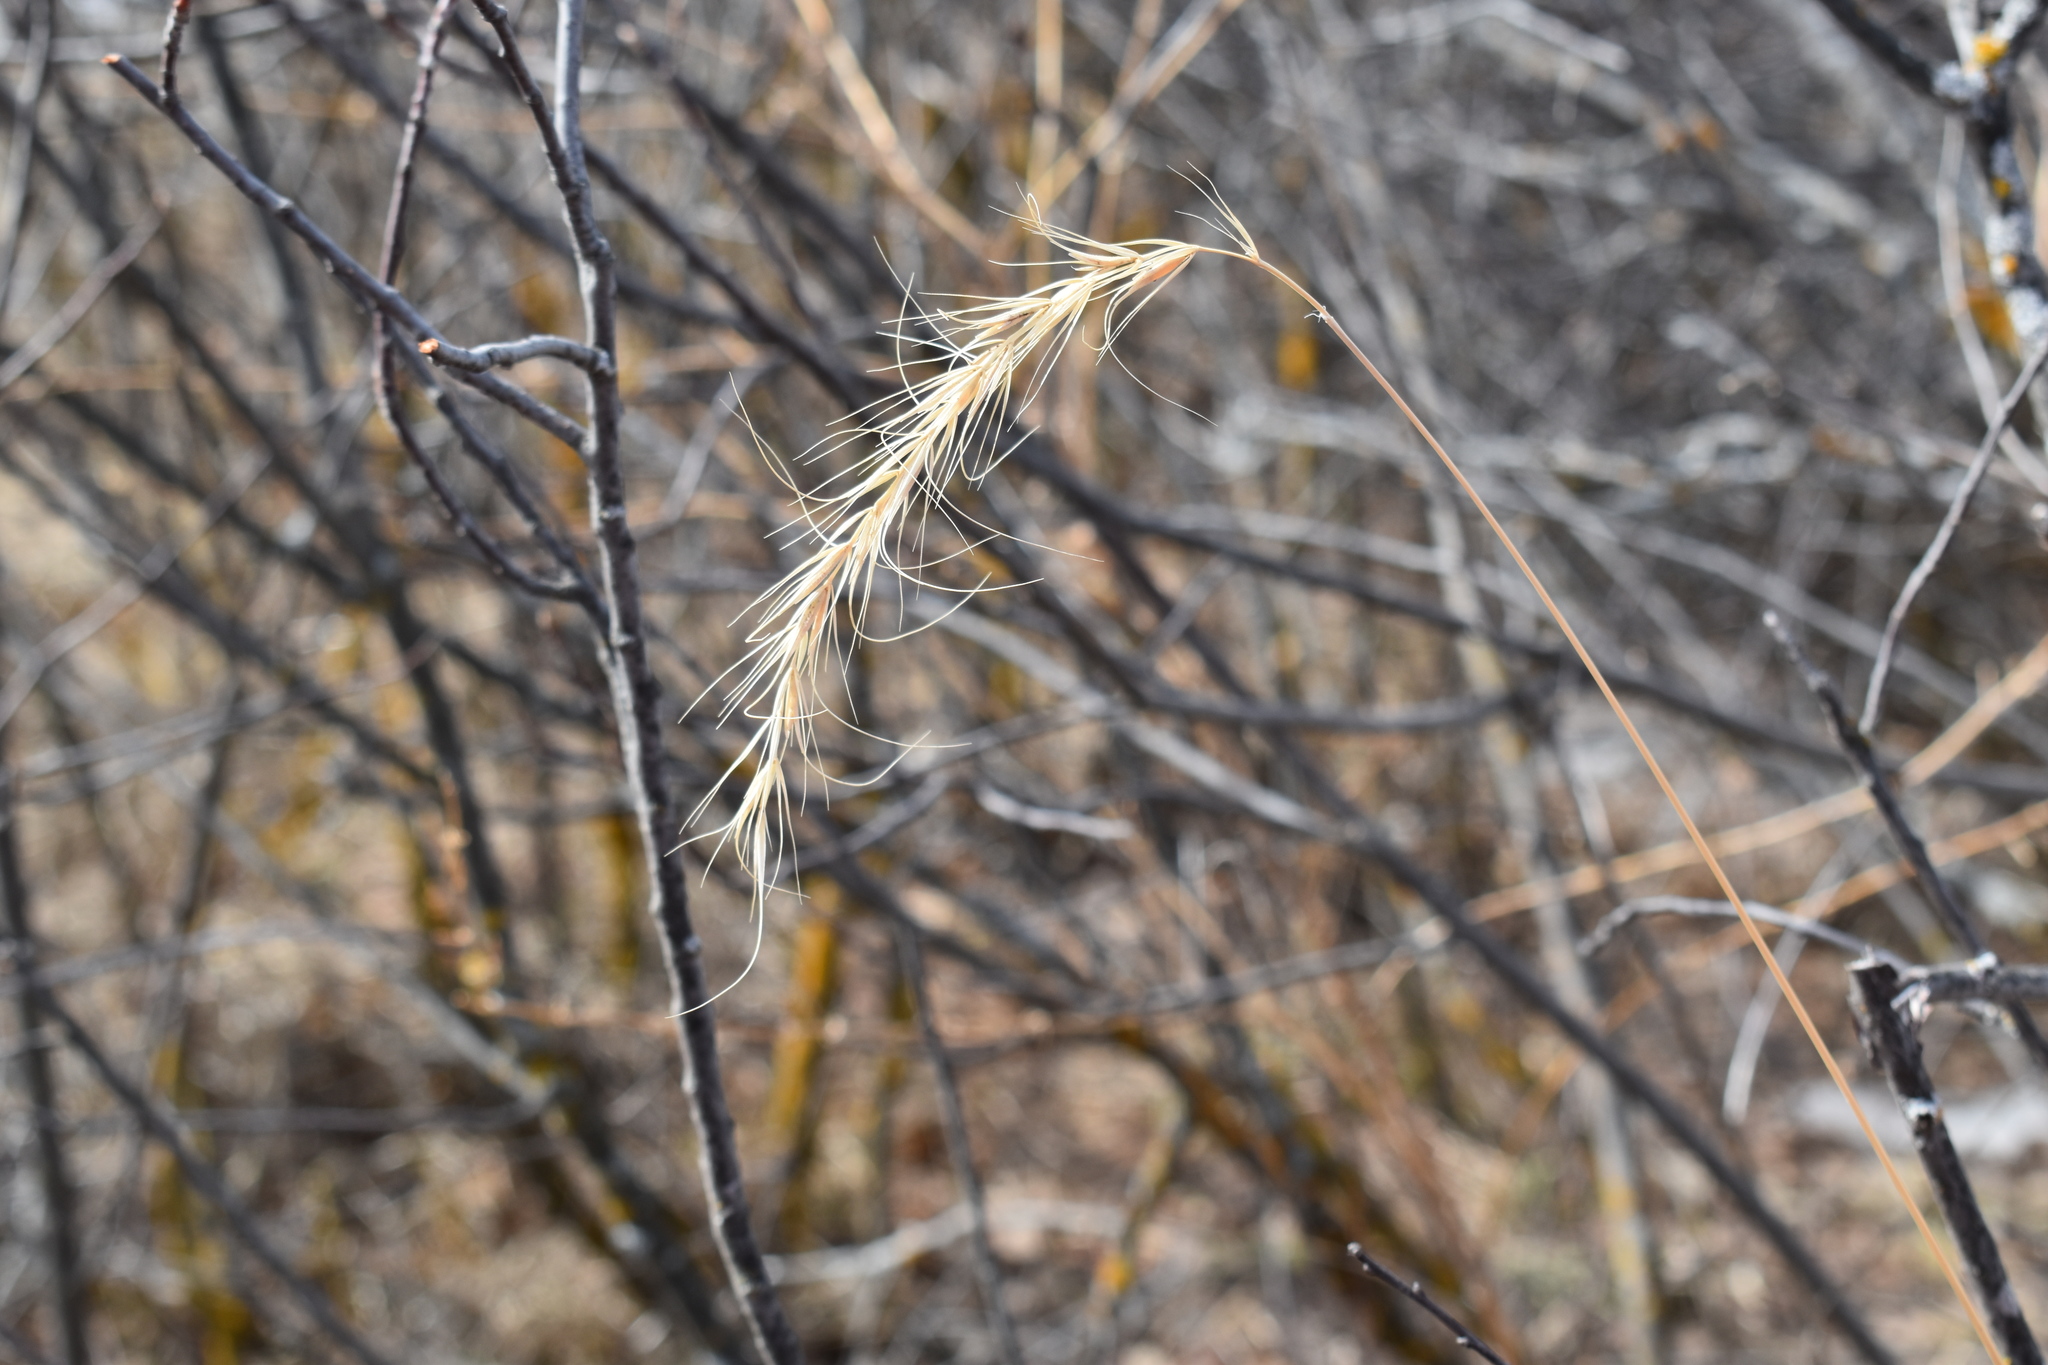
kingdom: Plantae
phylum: Tracheophyta
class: Liliopsida
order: Poales
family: Poaceae
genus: Elymus
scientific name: Elymus canadensis
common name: Canada wild rye
